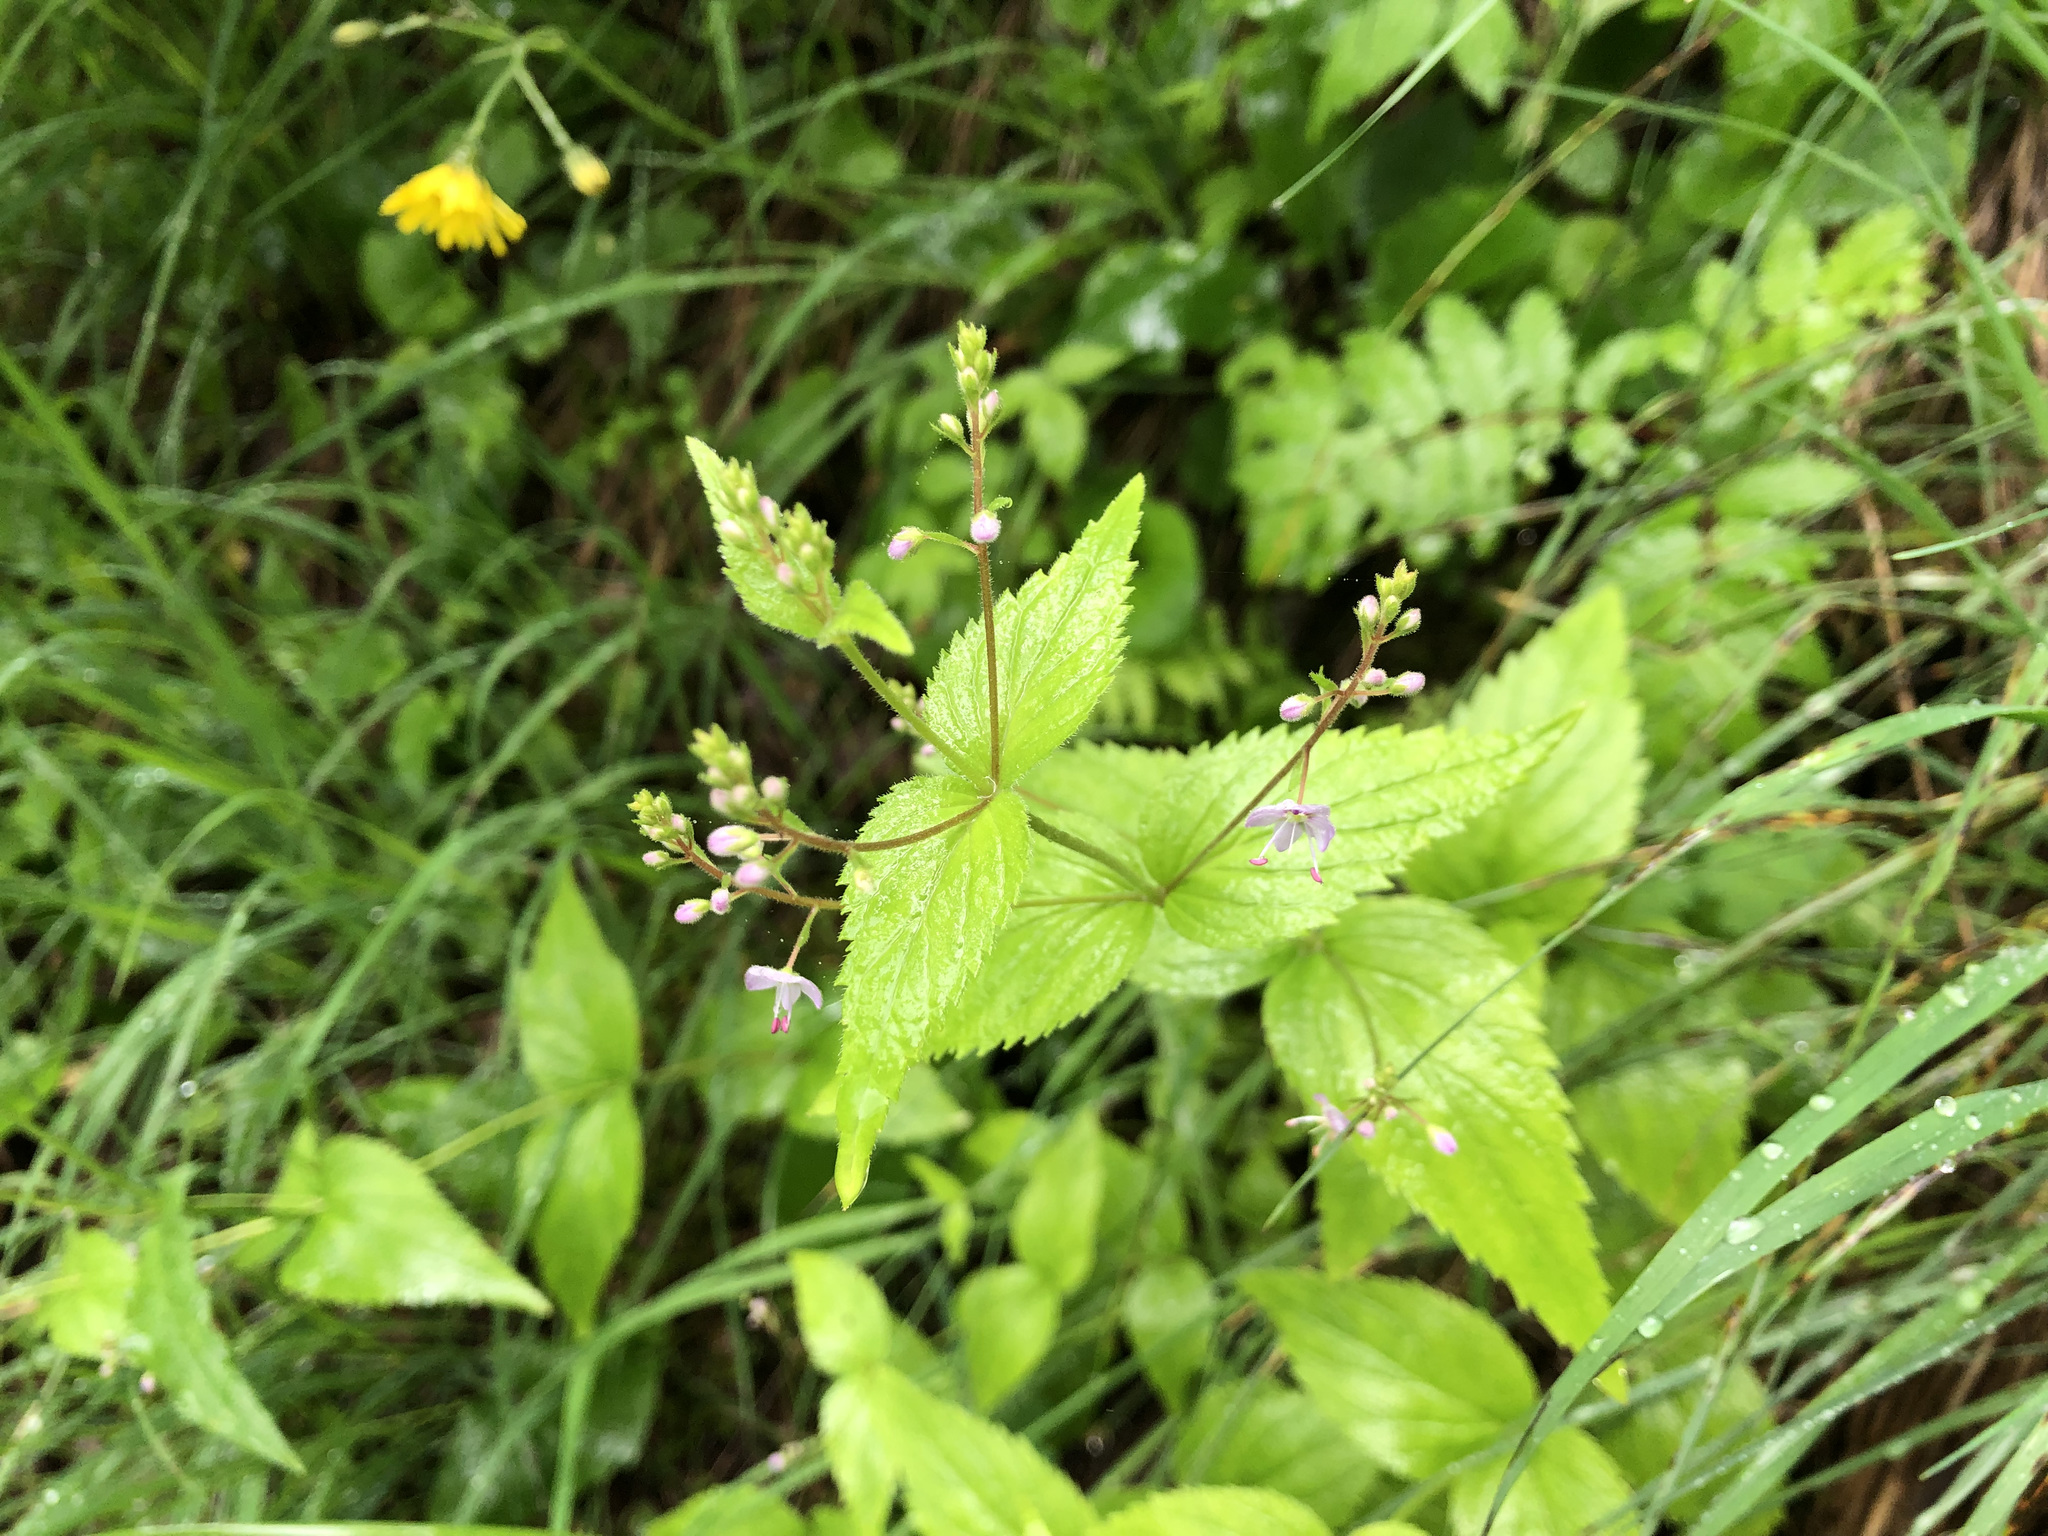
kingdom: Plantae
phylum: Tracheophyta
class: Magnoliopsida
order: Lamiales
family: Plantaginaceae
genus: Veronica
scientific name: Veronica urticifolia
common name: Nettle-leaf speedwell
